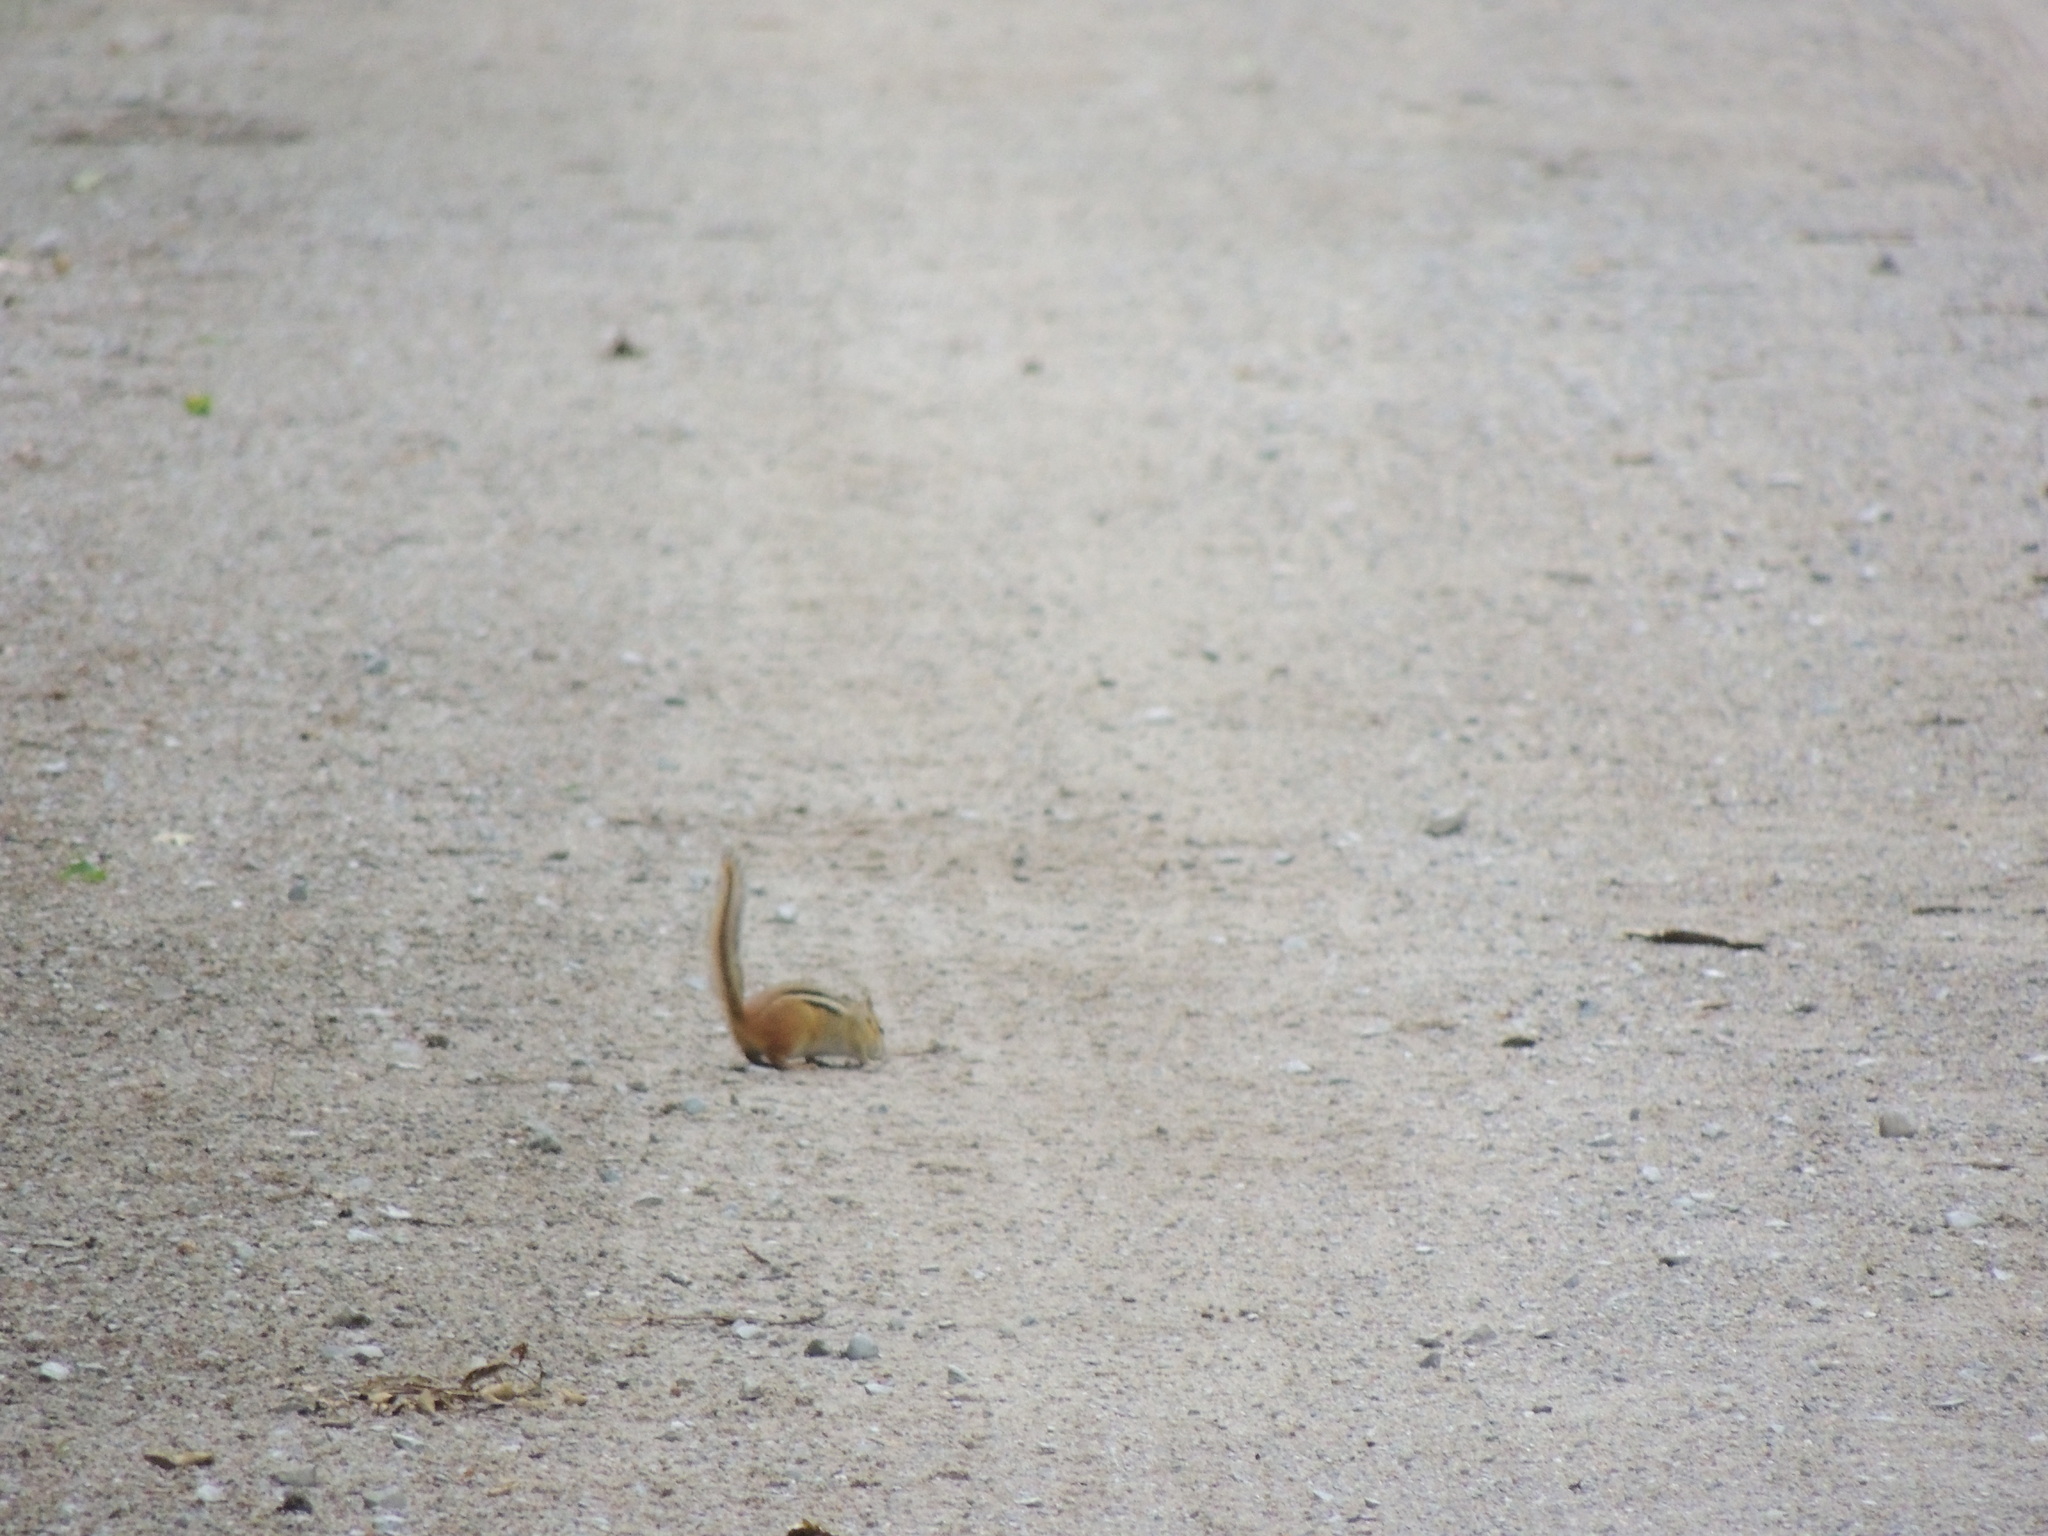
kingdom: Animalia
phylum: Chordata
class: Mammalia
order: Rodentia
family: Sciuridae
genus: Tamias
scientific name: Tamias striatus
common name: Eastern chipmunk
